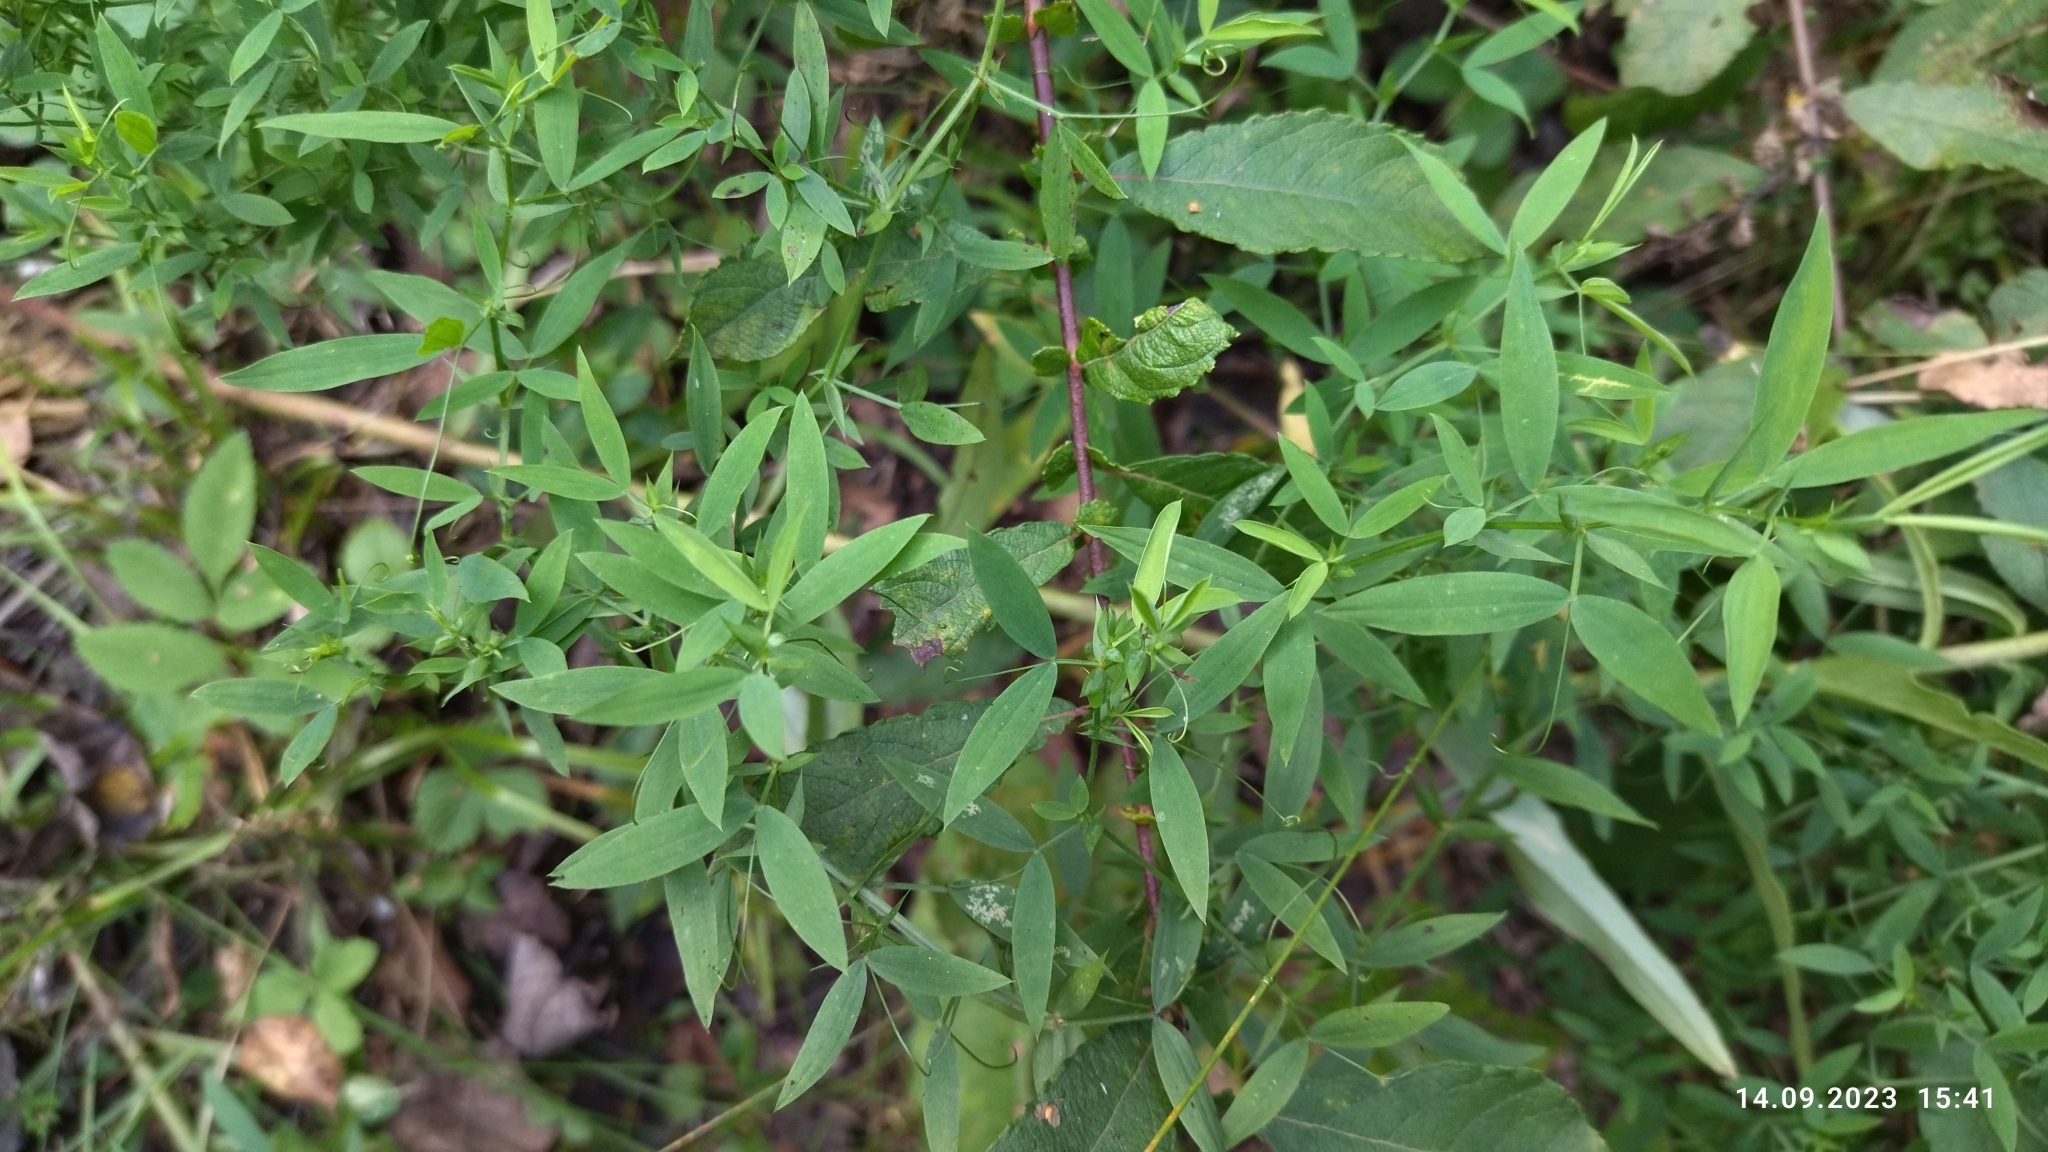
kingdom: Plantae
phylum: Tracheophyta
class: Magnoliopsida
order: Fabales
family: Fabaceae
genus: Lathyrus
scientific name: Lathyrus pratensis
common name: Meadow vetchling
